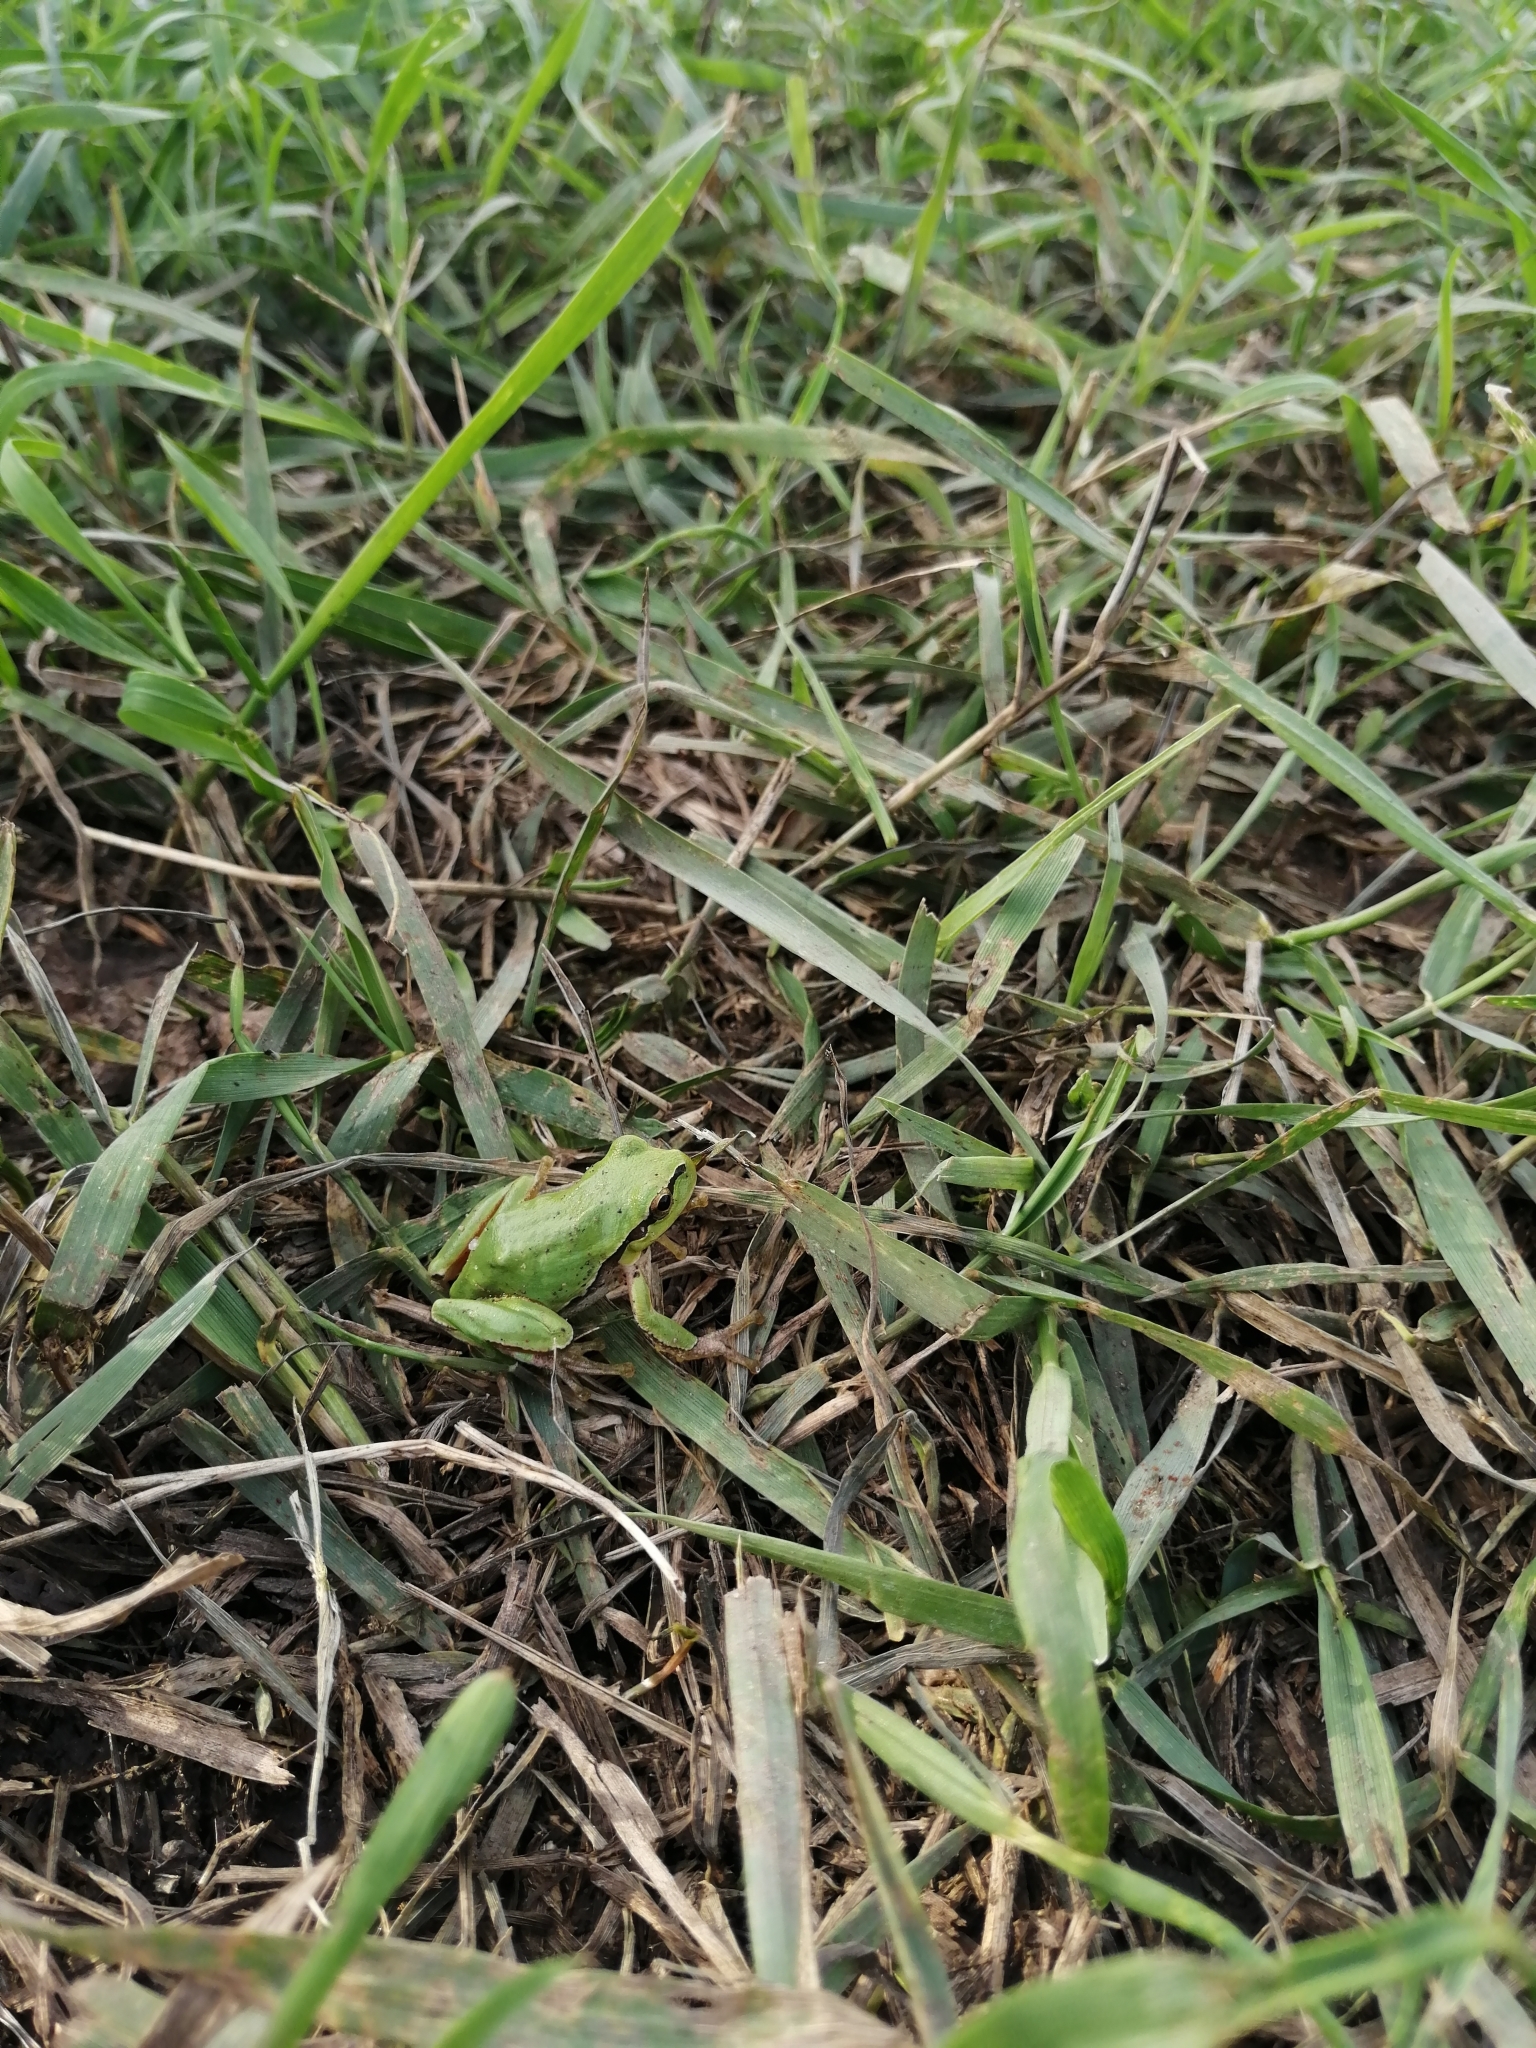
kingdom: Animalia
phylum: Chordata
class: Amphibia
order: Anura
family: Hylidae
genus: Hyla
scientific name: Hyla orientalis
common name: Caucasian treefrog
